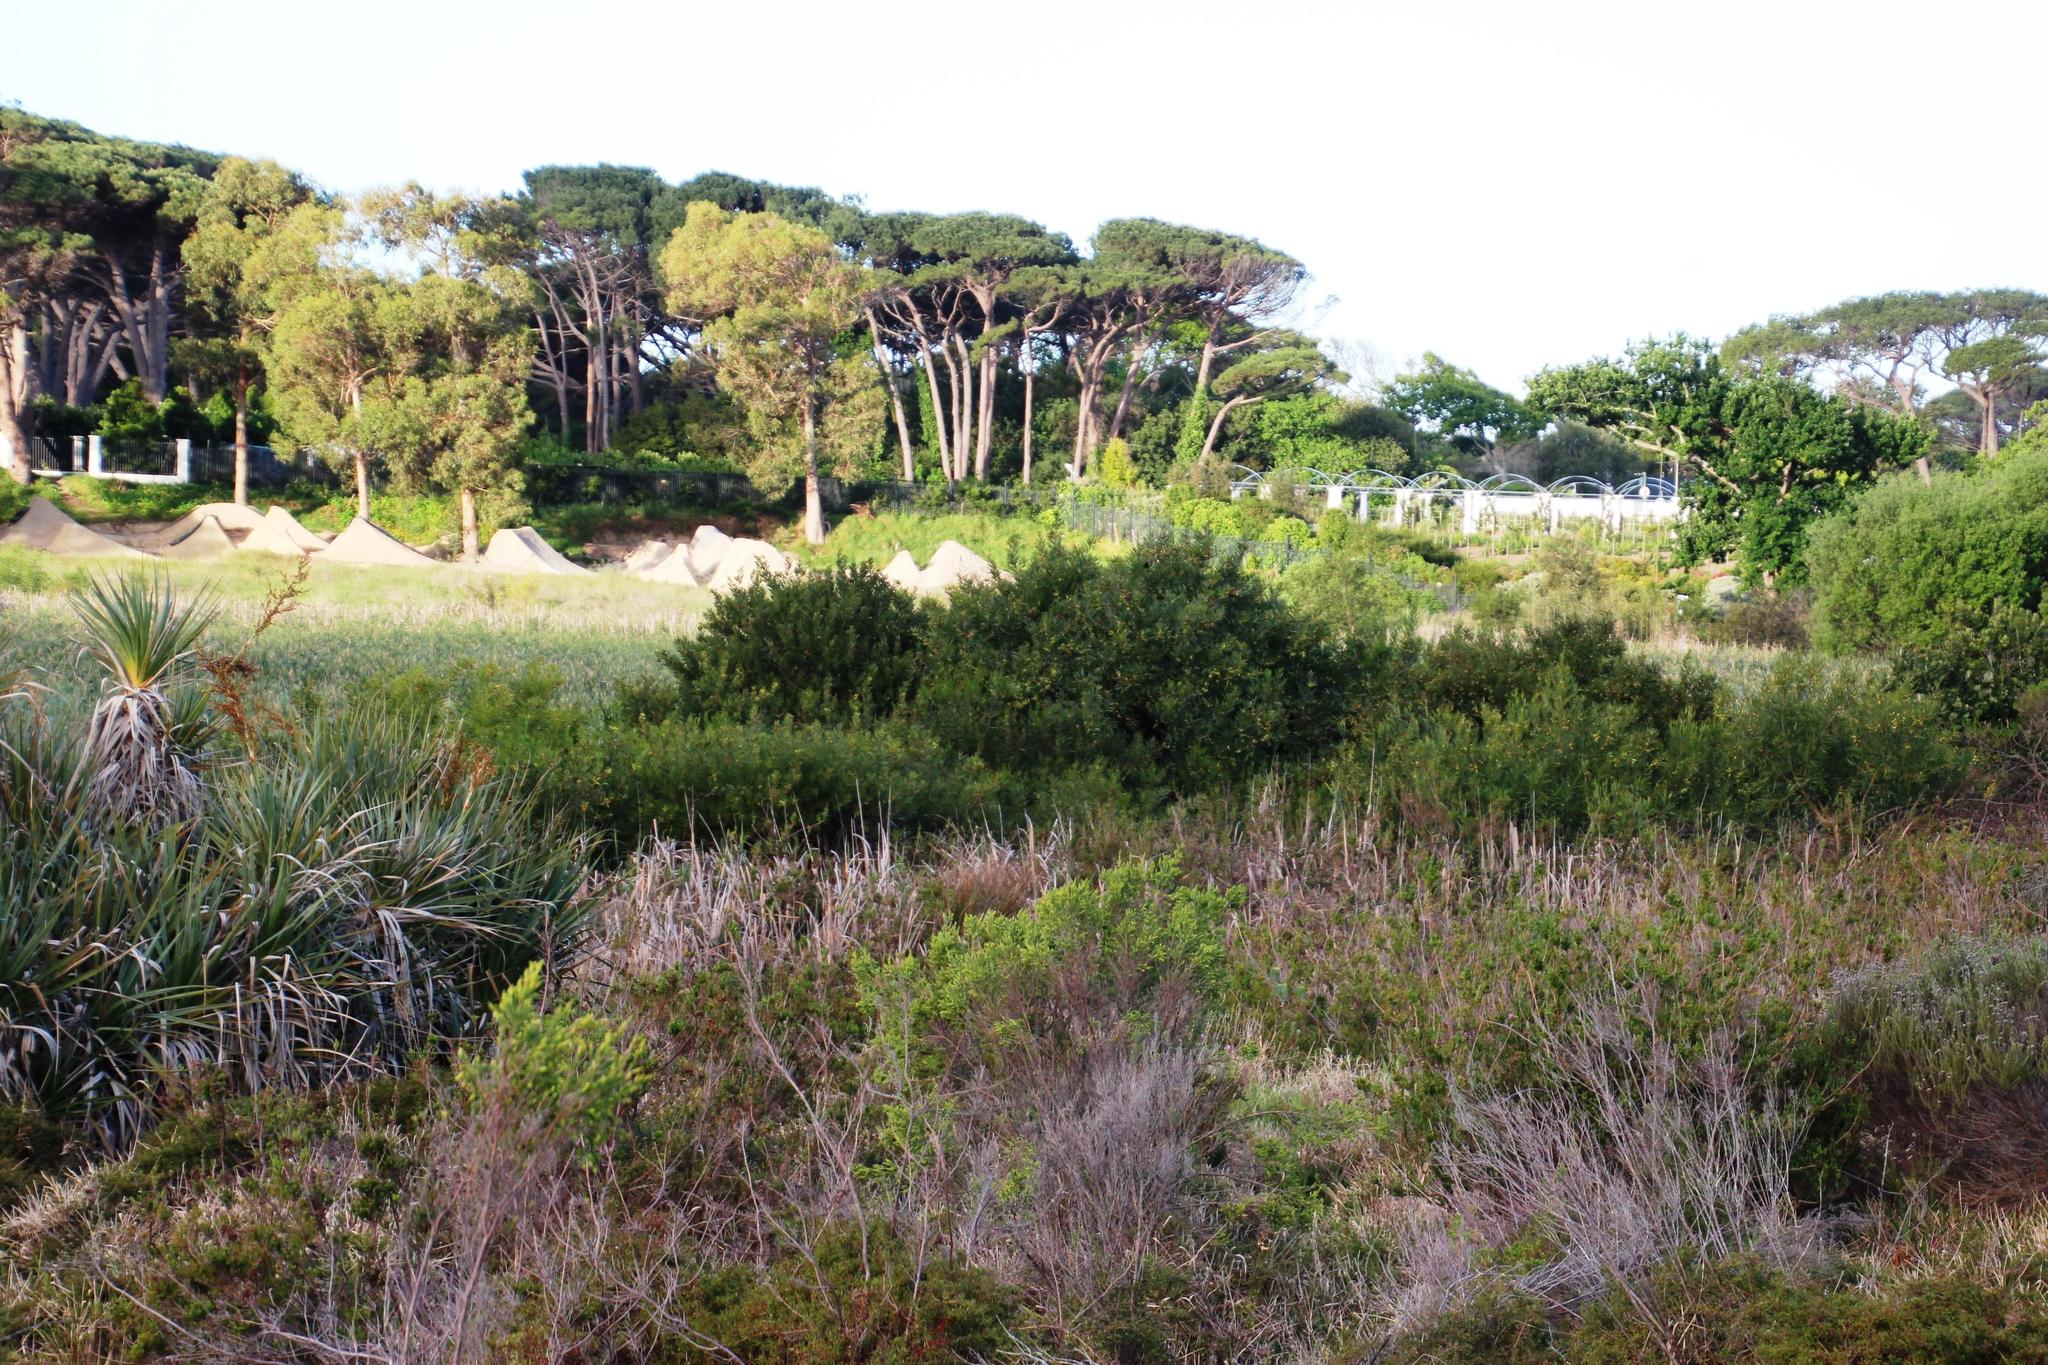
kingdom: Plantae
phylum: Tracheophyta
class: Magnoliopsida
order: Fabales
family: Fabaceae
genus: Acacia
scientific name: Acacia longifolia
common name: Sydney golden wattle
